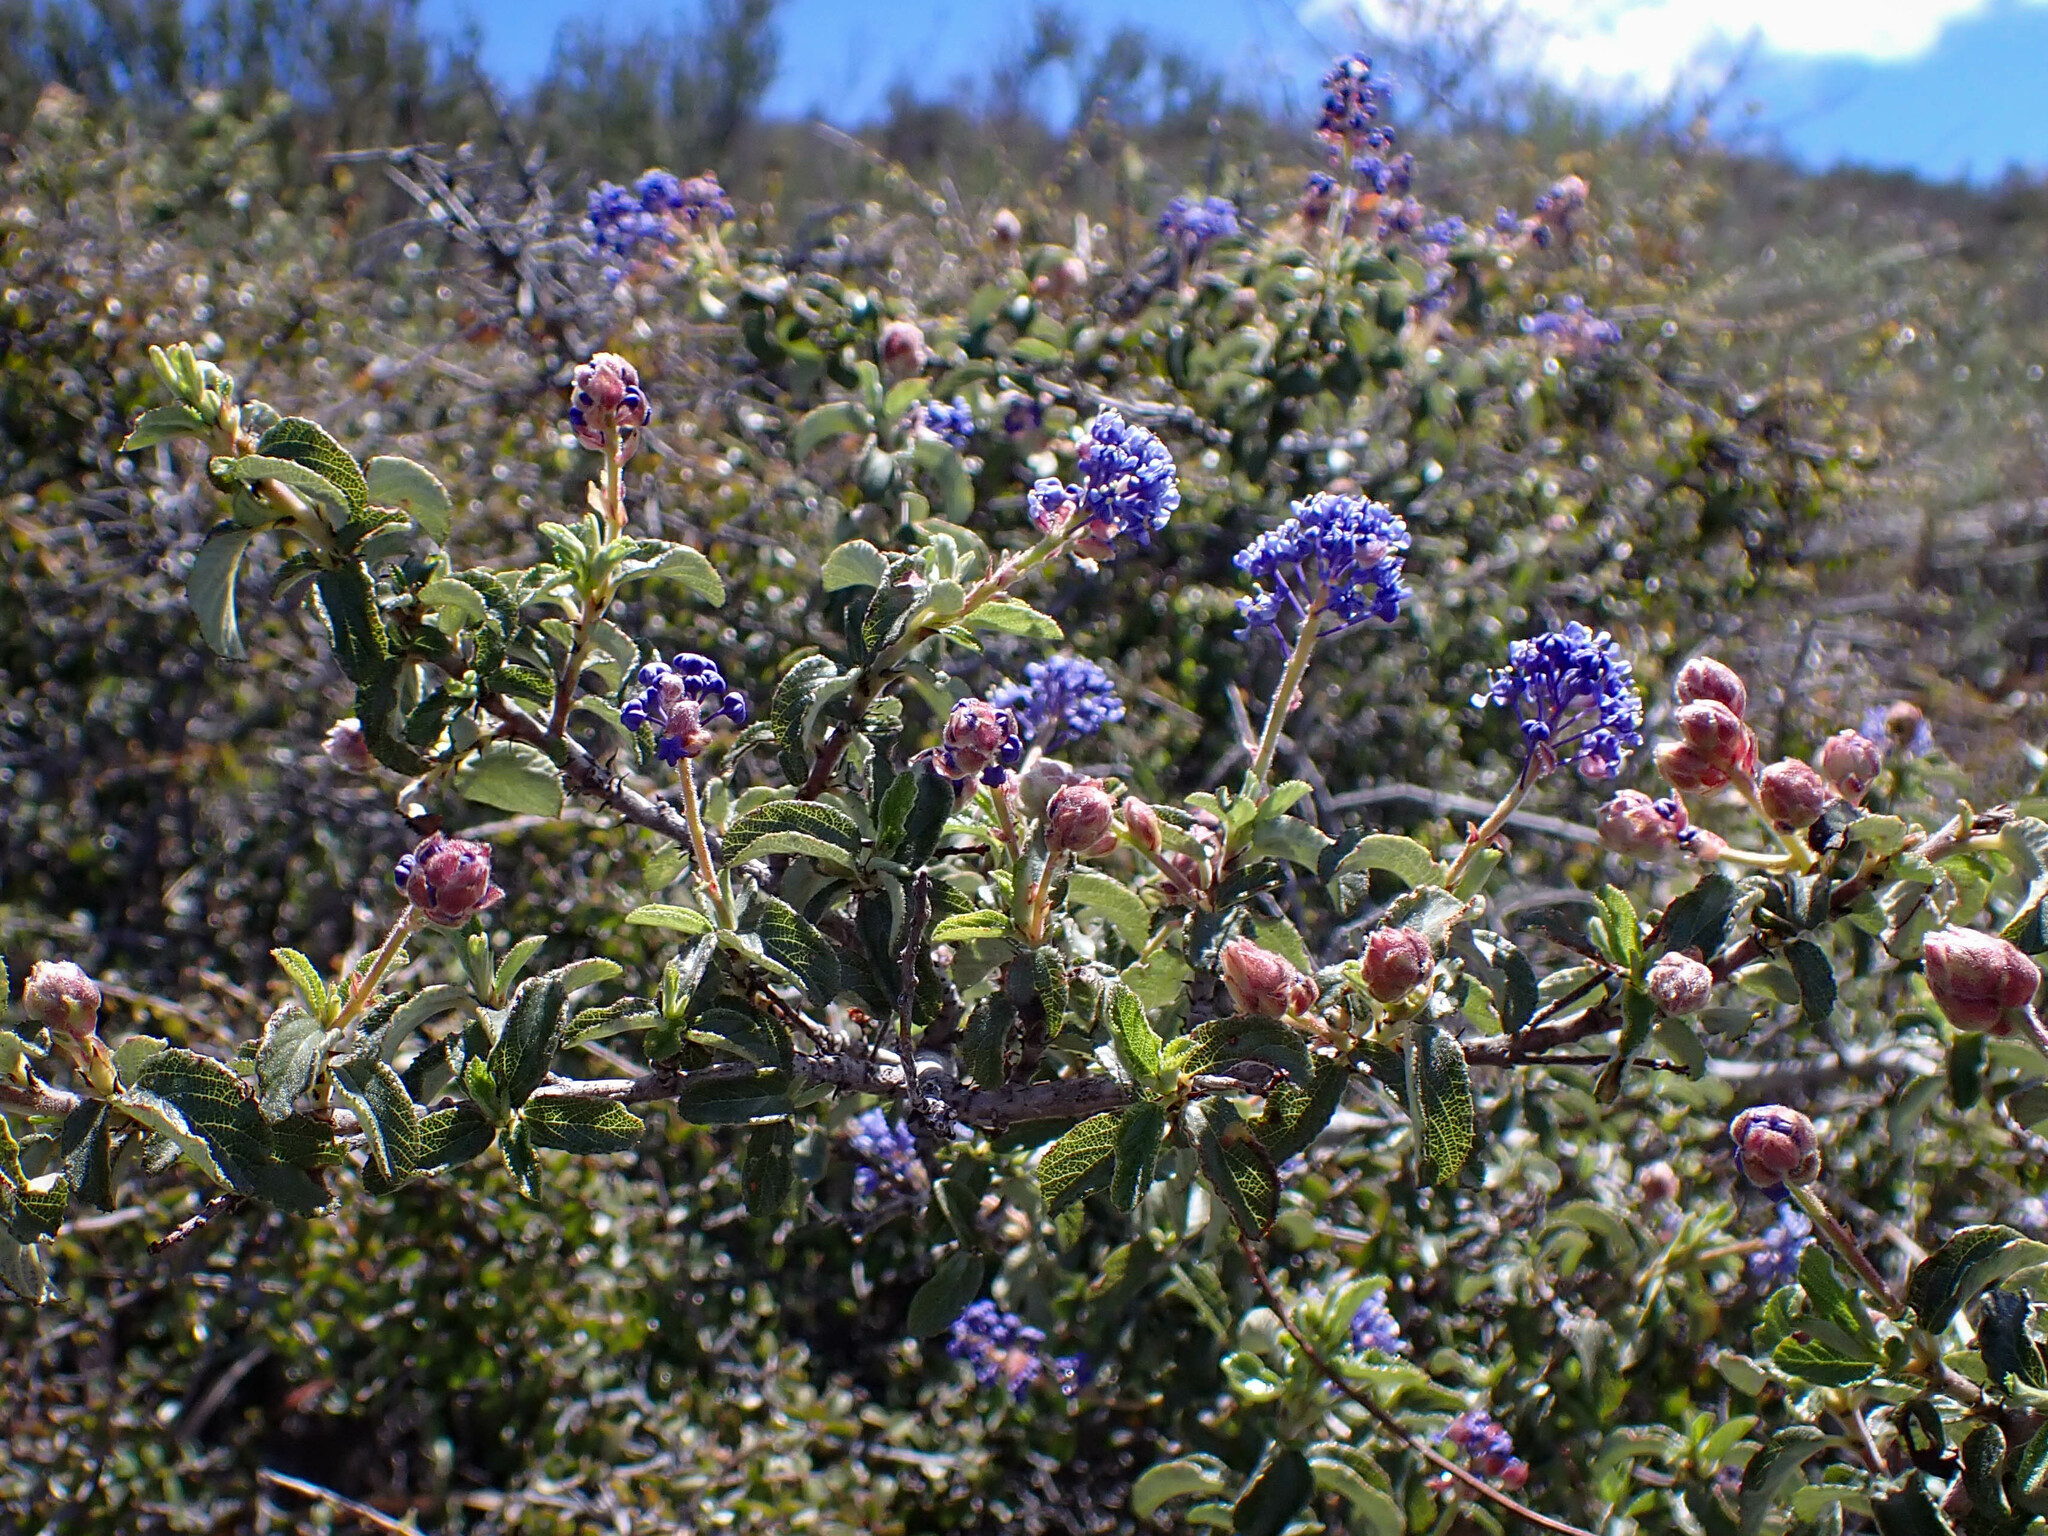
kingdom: Plantae
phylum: Tracheophyta
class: Magnoliopsida
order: Rosales
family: Rhamnaceae
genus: Ceanothus
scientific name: Ceanothus foliosus
